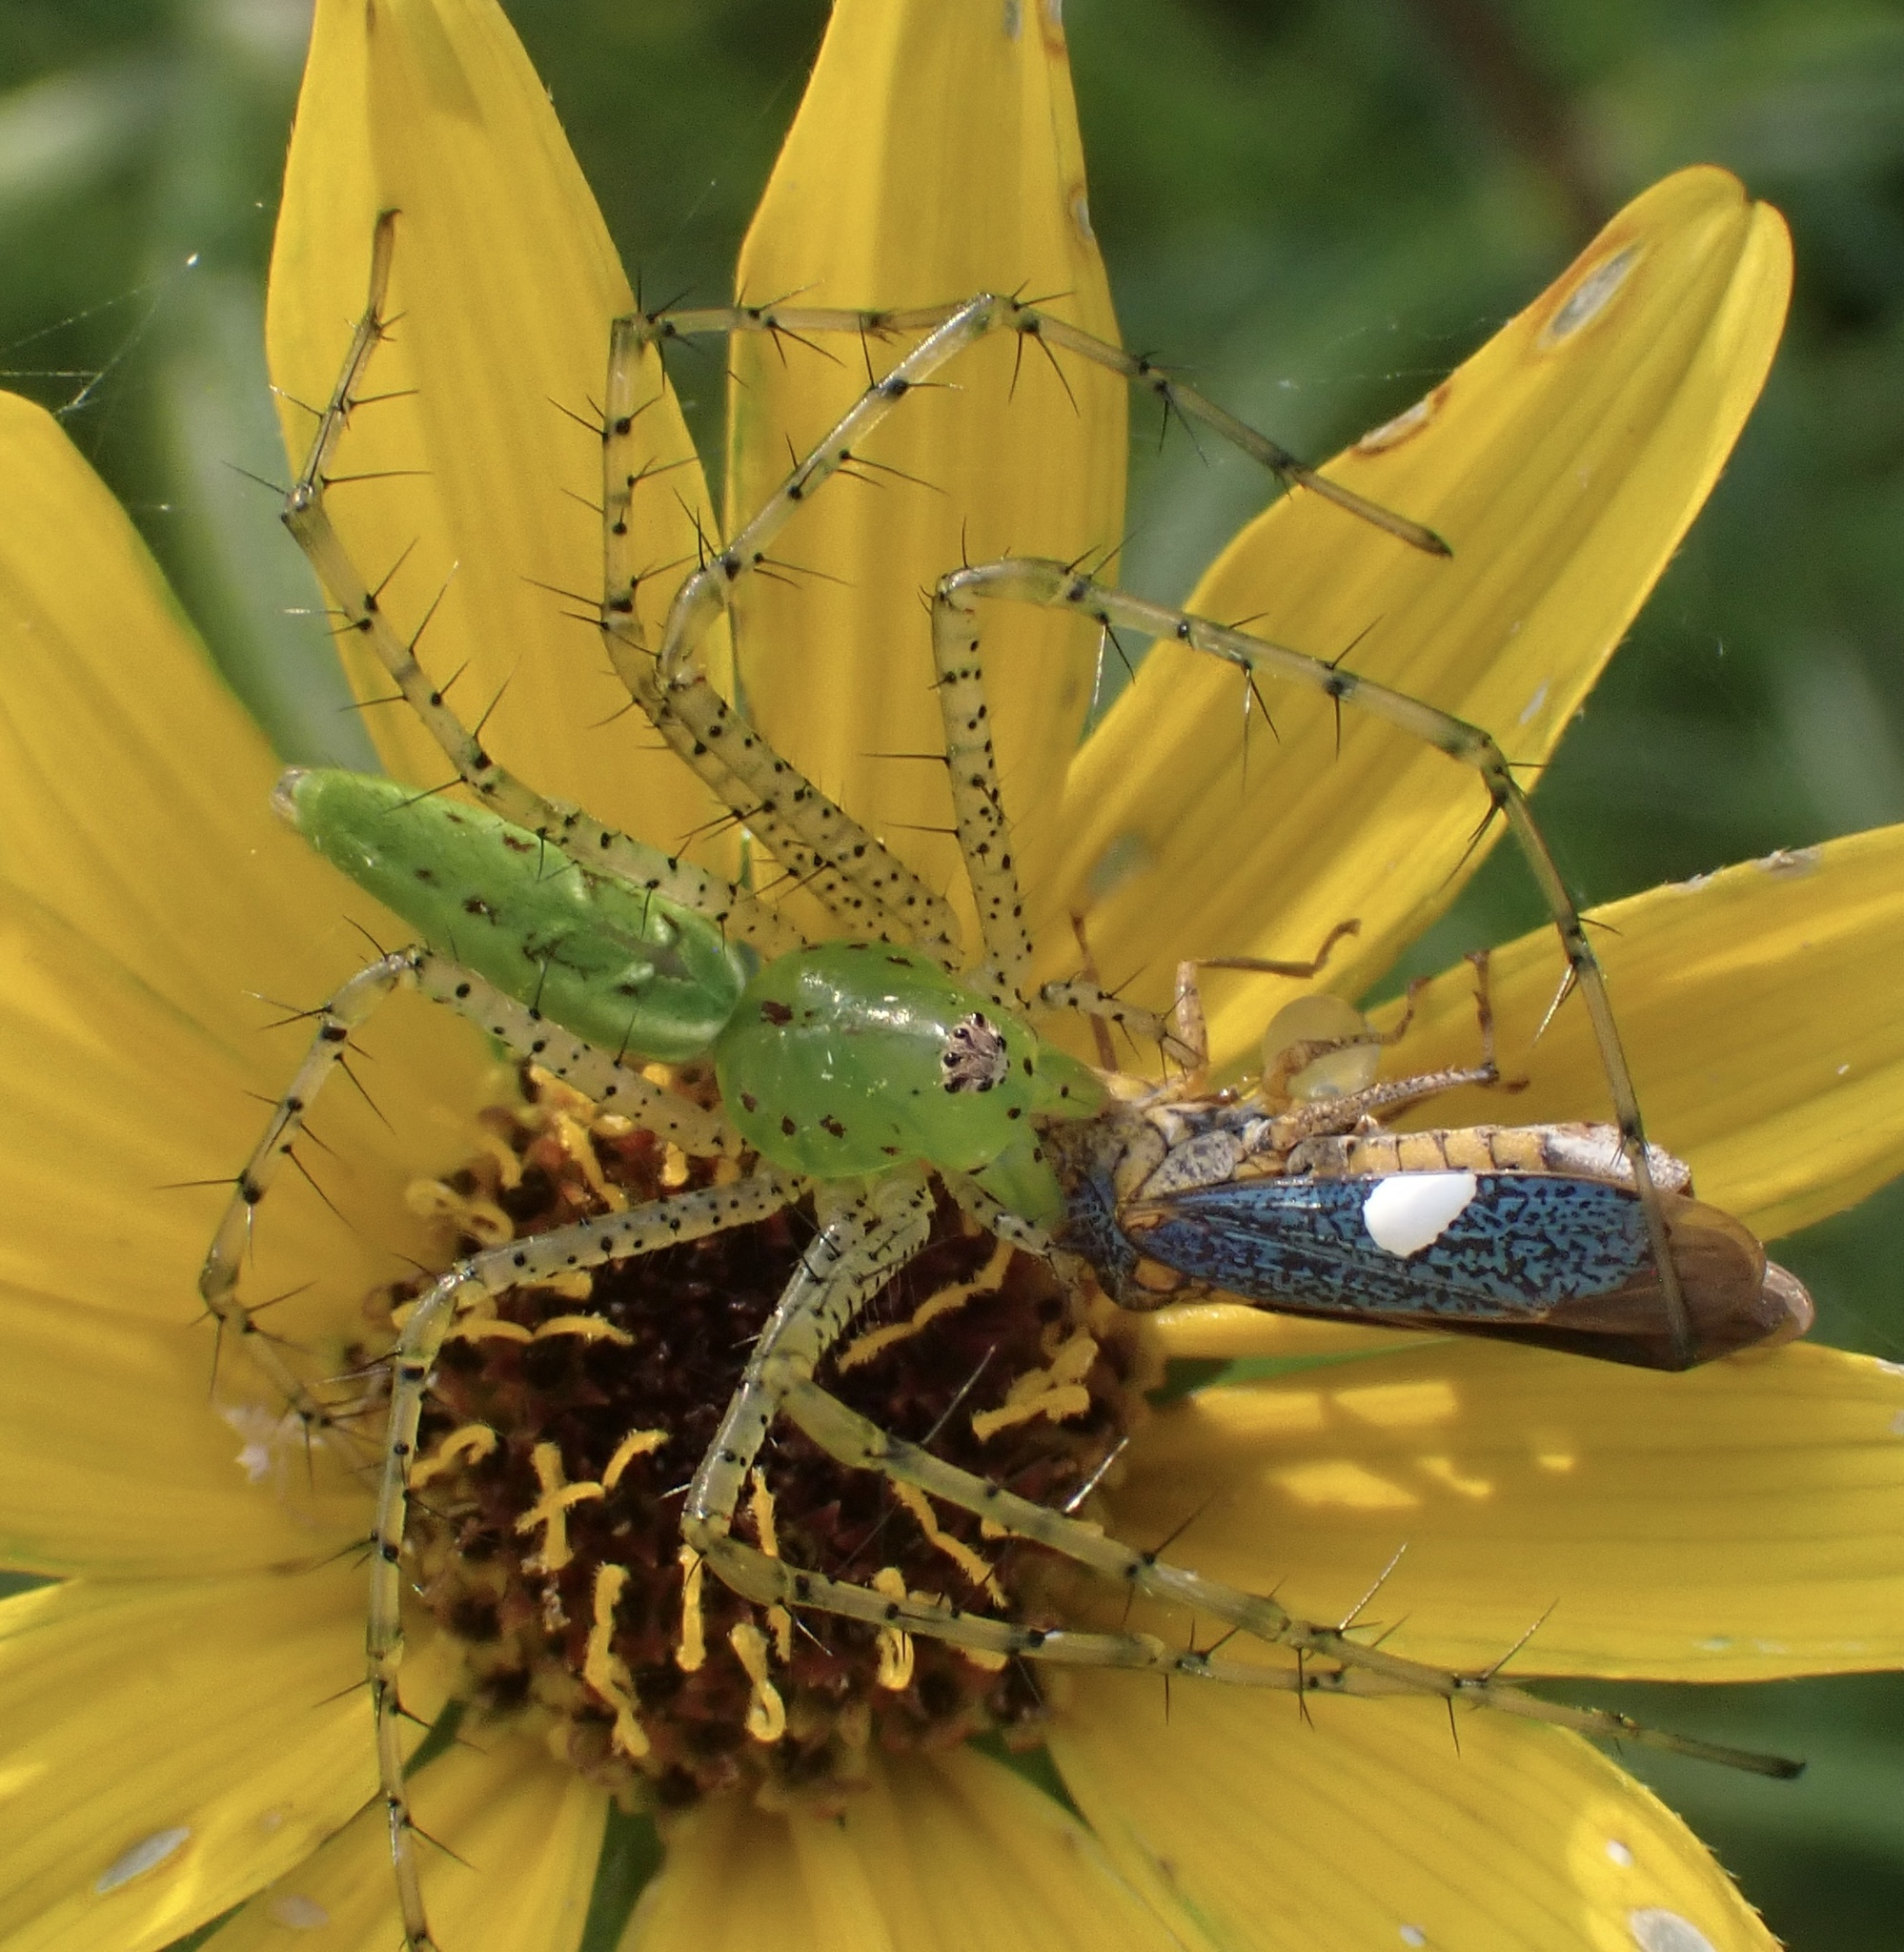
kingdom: Animalia
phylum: Arthropoda
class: Arachnida
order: Araneae
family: Oxyopidae
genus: Peucetia
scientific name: Peucetia viridans
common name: Lynx spiders
